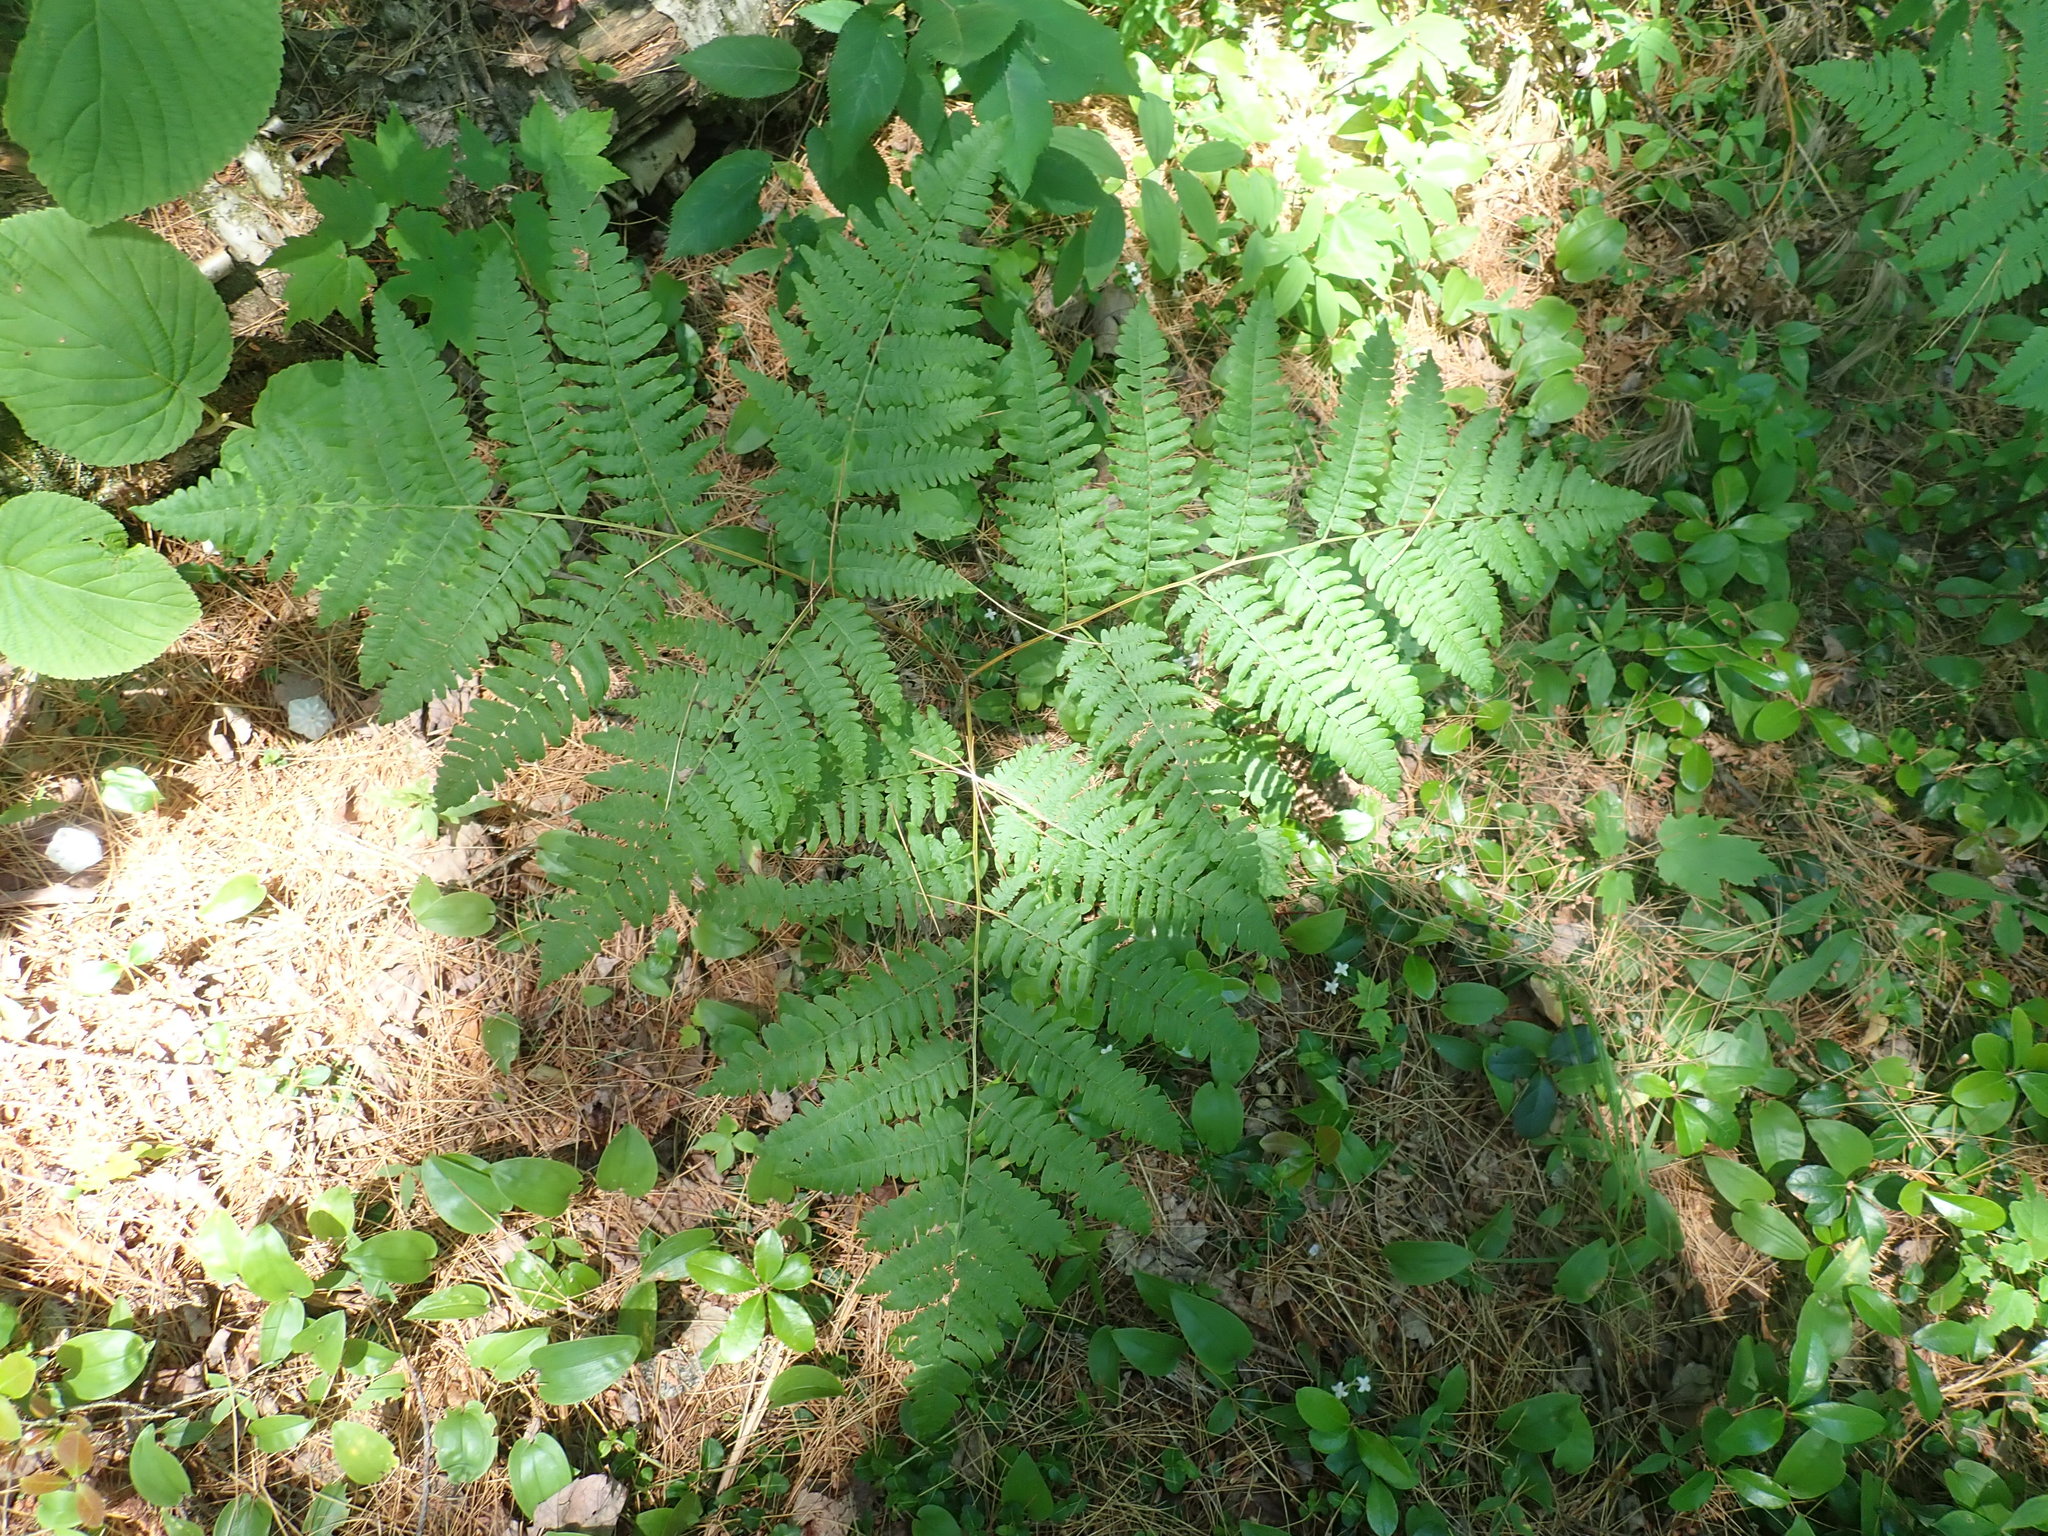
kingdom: Plantae
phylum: Tracheophyta
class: Polypodiopsida
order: Polypodiales
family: Dennstaedtiaceae
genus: Pteridium
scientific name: Pteridium aquilinum
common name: Bracken
